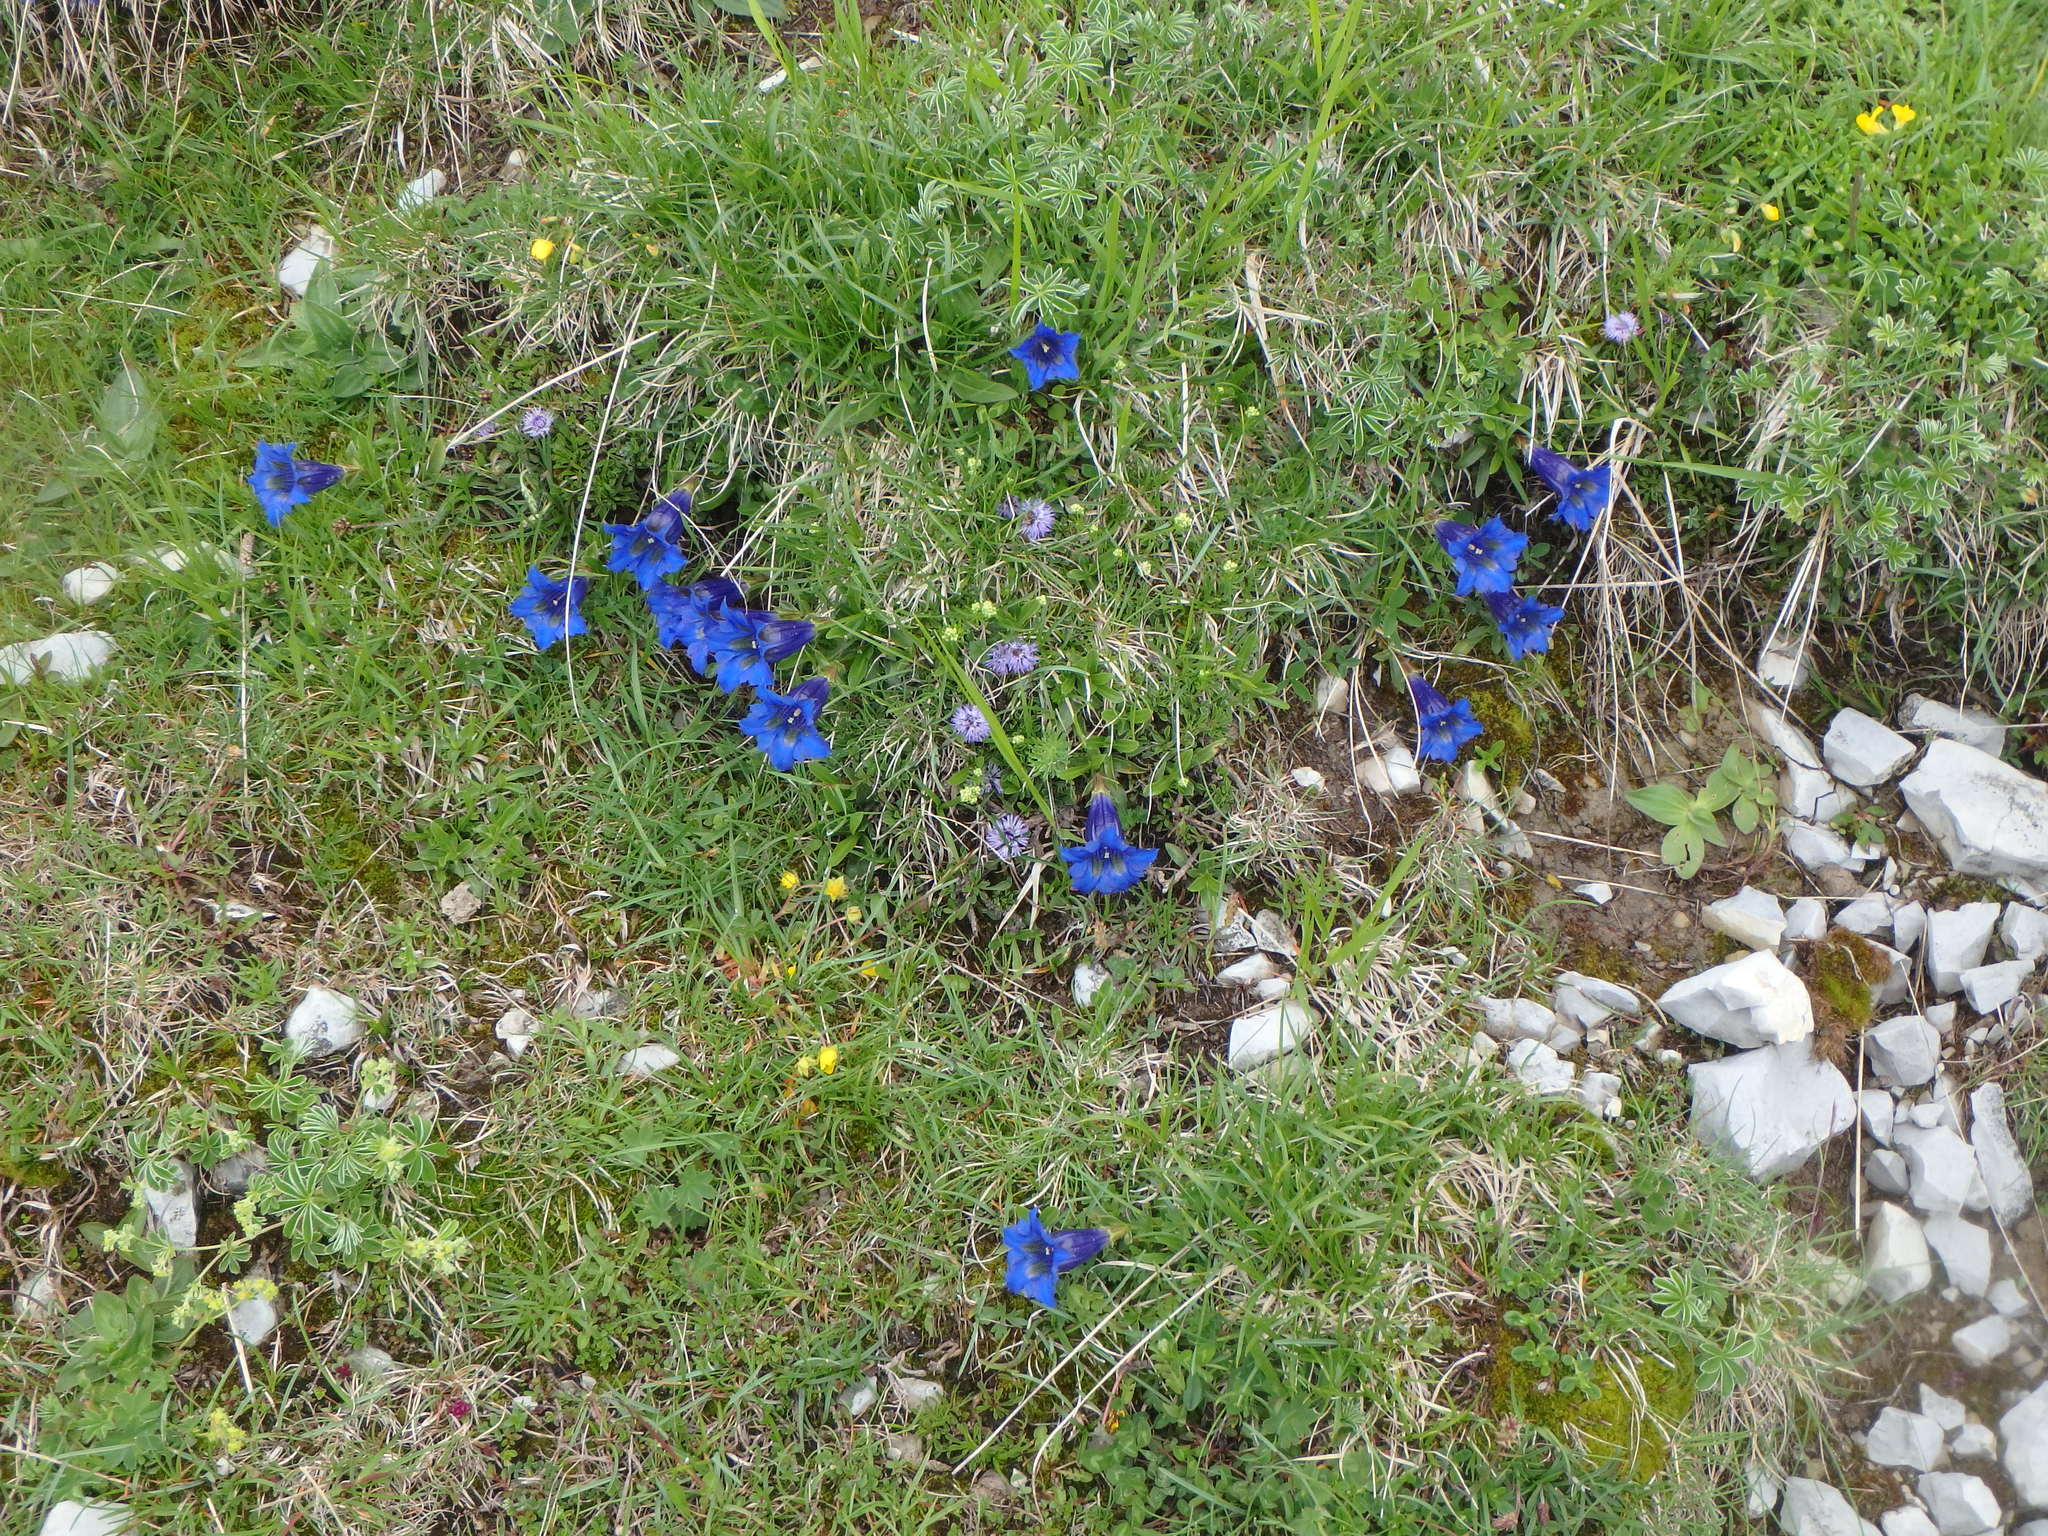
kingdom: Plantae
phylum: Tracheophyta
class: Magnoliopsida
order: Gentianales
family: Gentianaceae
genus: Gentiana
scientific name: Gentiana angustifolia
